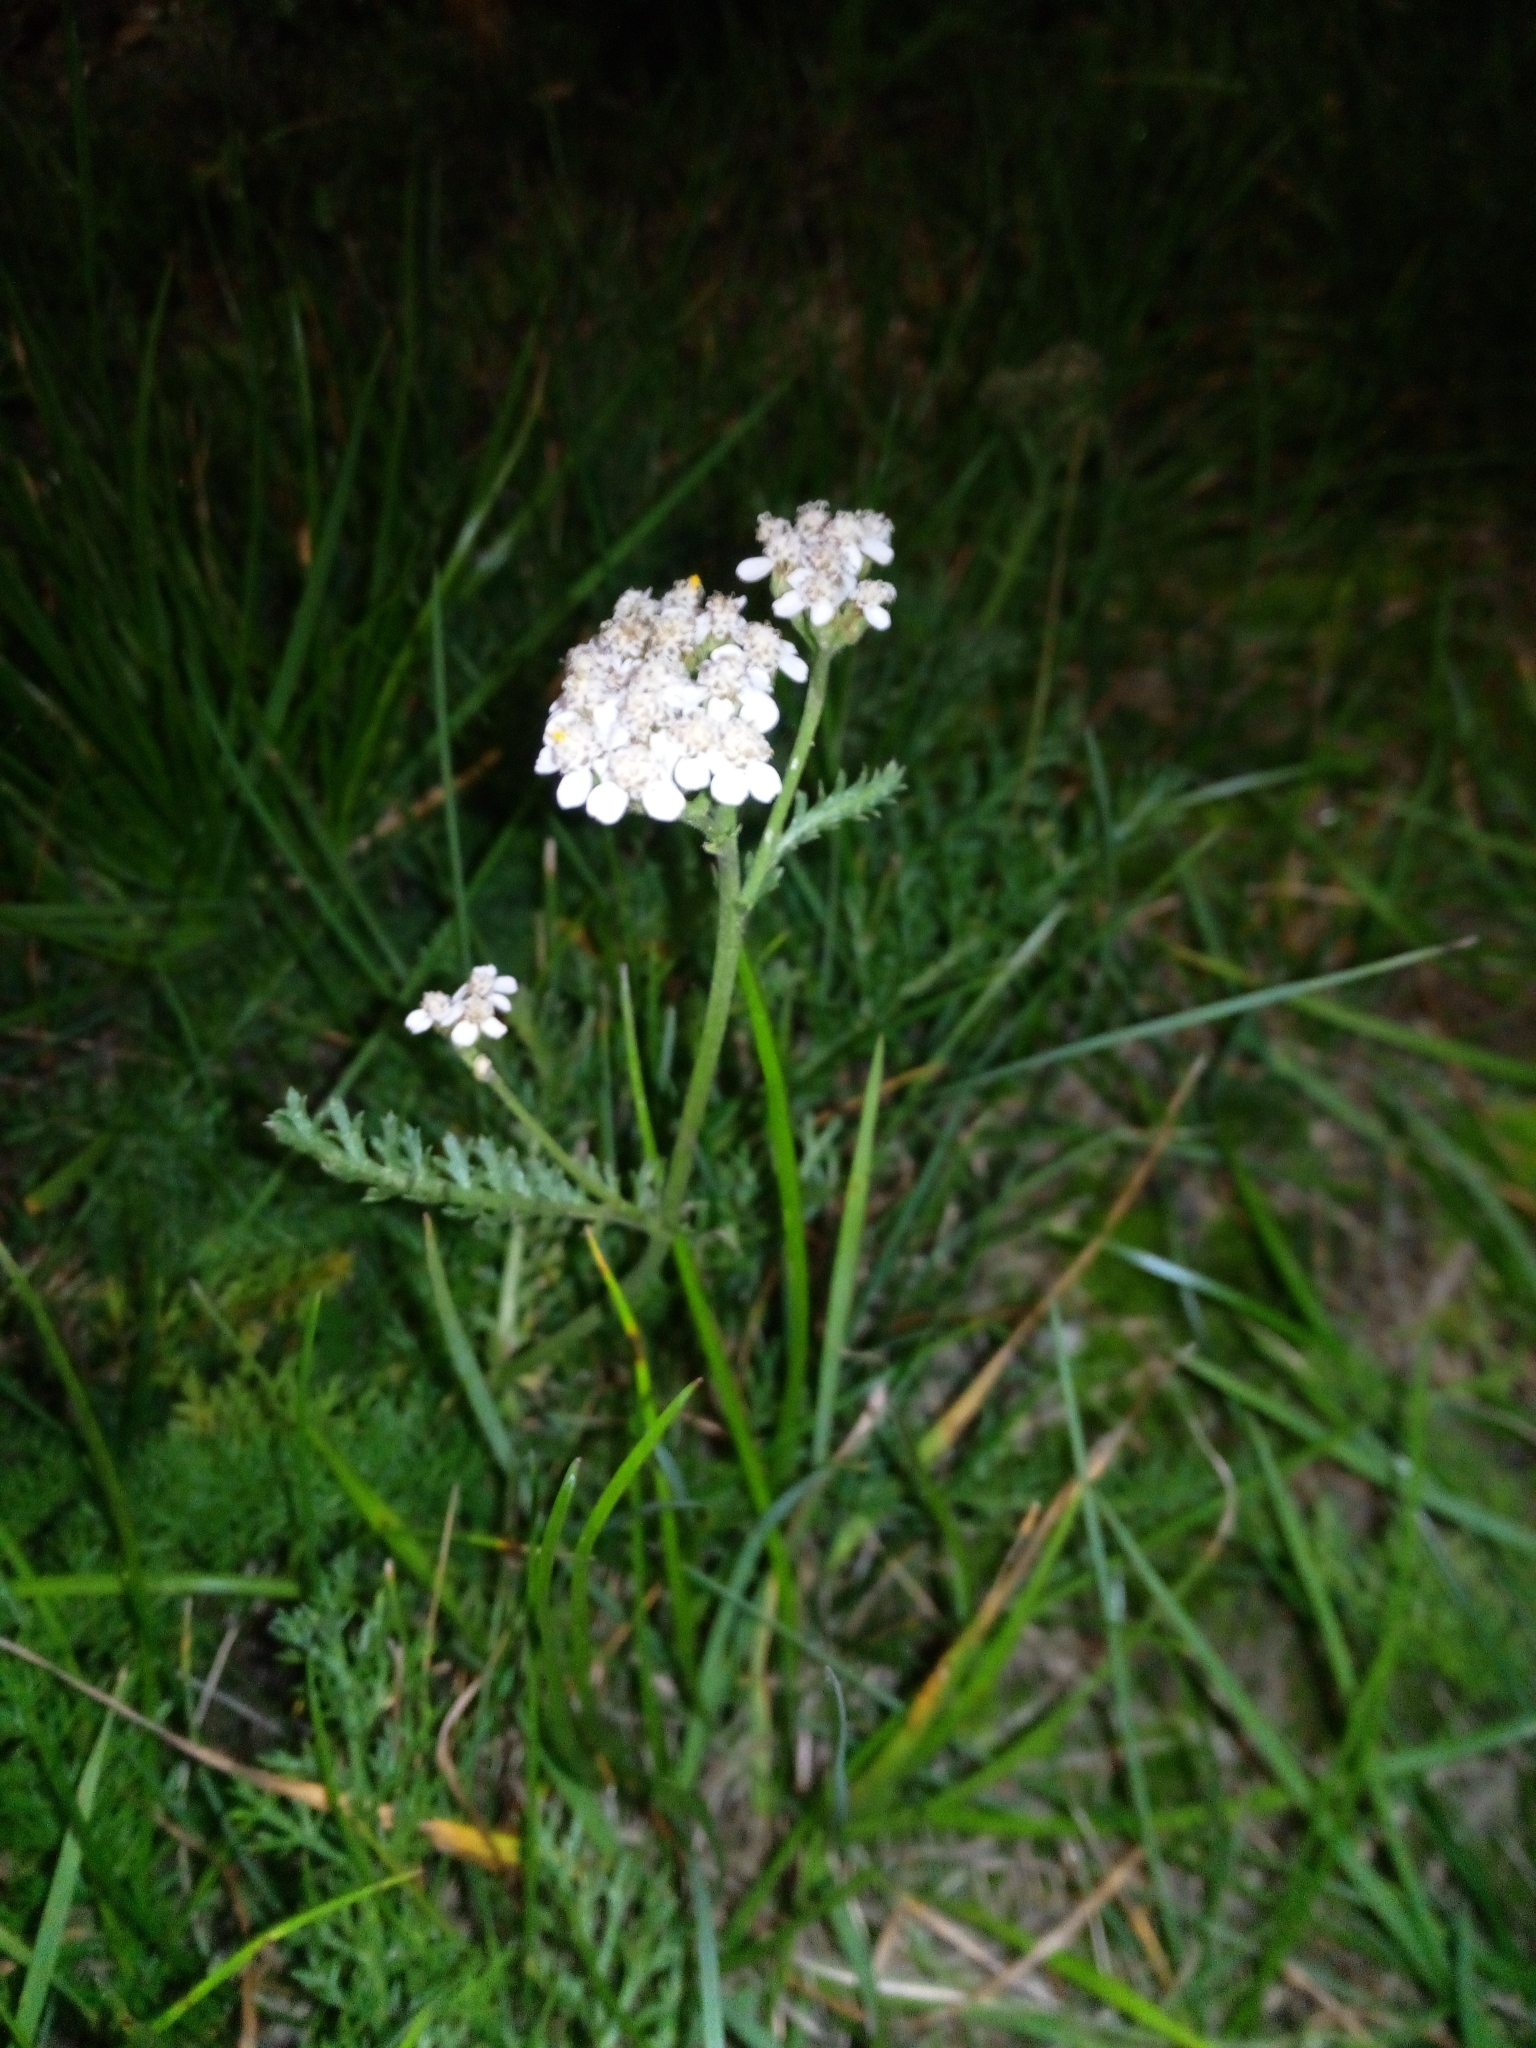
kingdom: Plantae
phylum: Tracheophyta
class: Magnoliopsida
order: Asterales
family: Asteraceae
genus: Achillea
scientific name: Achillea millefolium
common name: Yarrow
